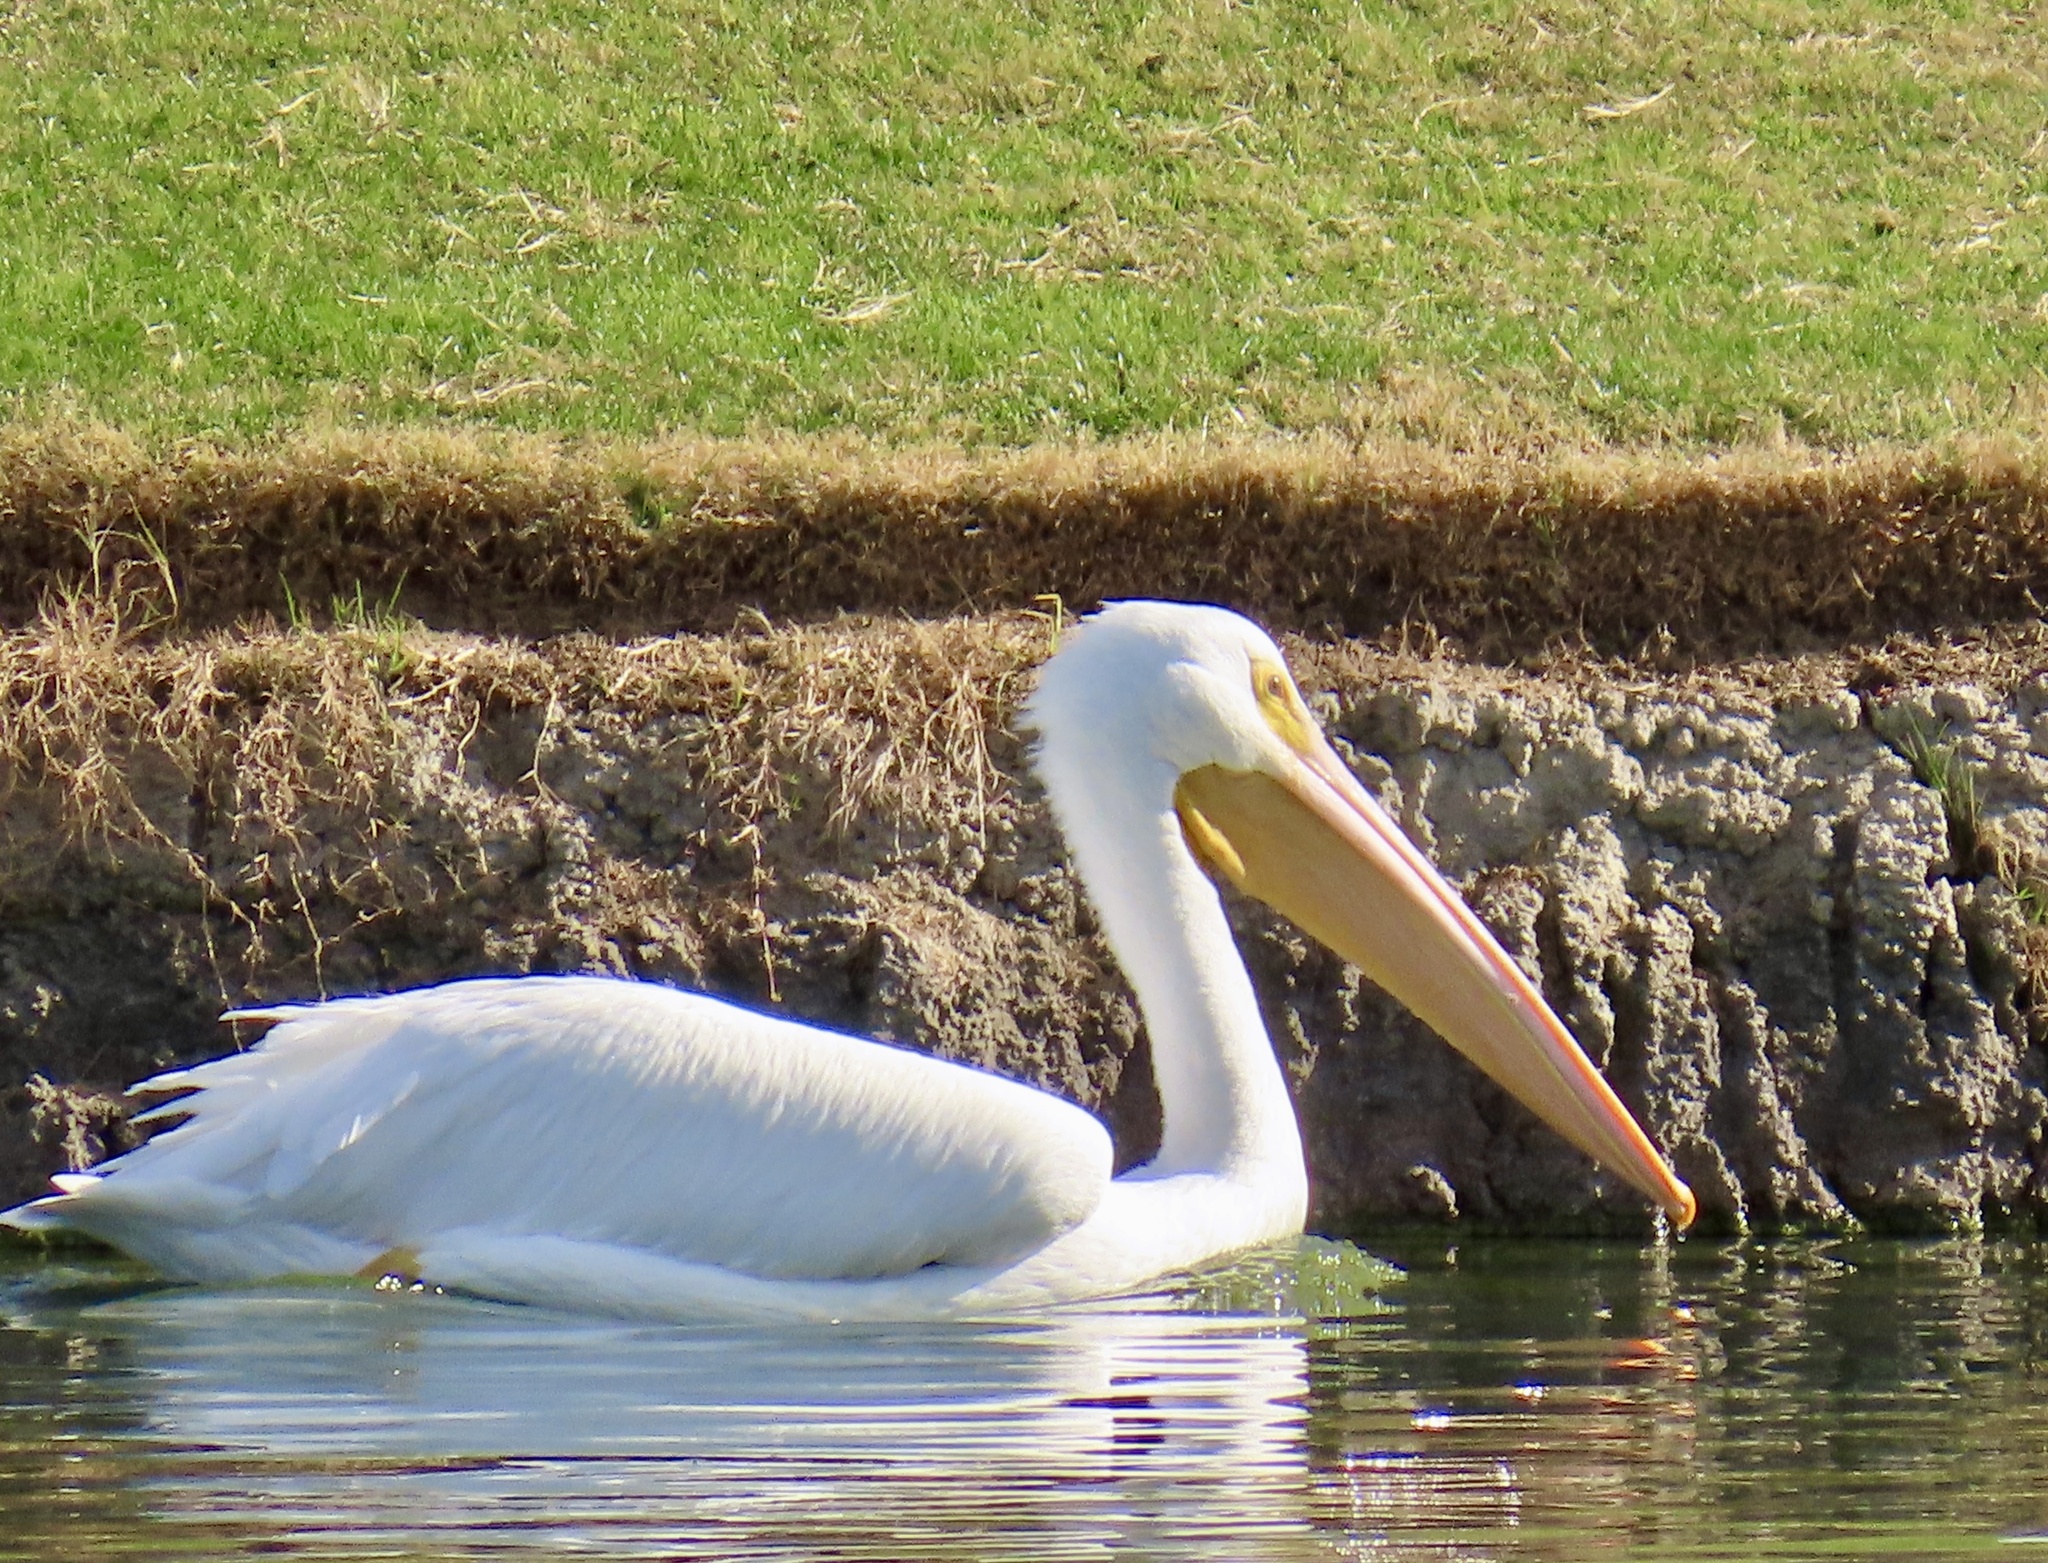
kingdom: Animalia
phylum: Chordata
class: Aves
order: Pelecaniformes
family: Pelecanidae
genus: Pelecanus
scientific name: Pelecanus erythrorhynchos
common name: American white pelican
